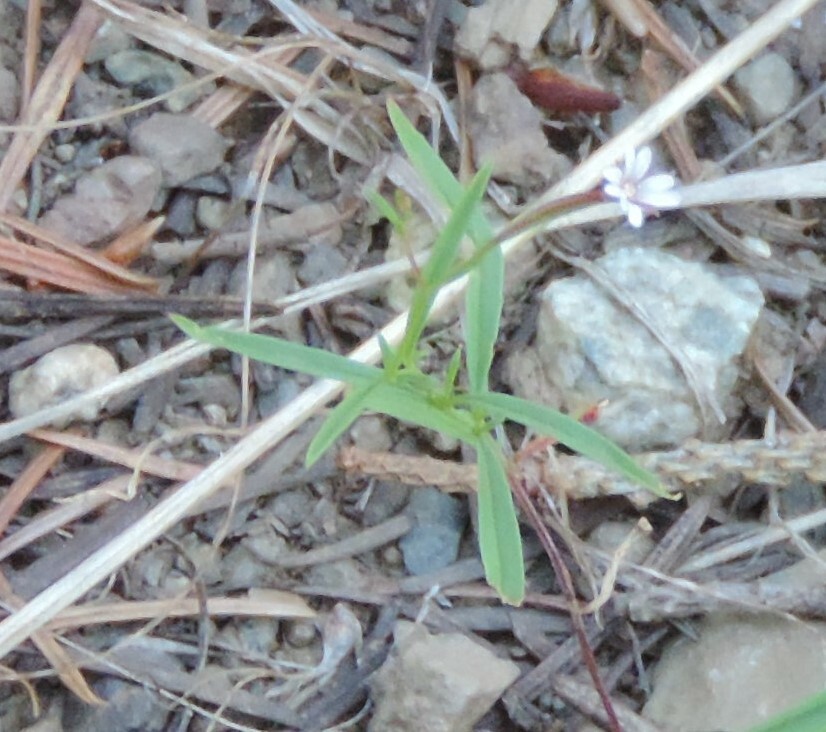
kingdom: Plantae
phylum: Tracheophyta
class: Magnoliopsida
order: Myrtales
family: Onagraceae
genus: Epilobium
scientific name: Epilobium brachycarpum
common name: Annual willowherb
